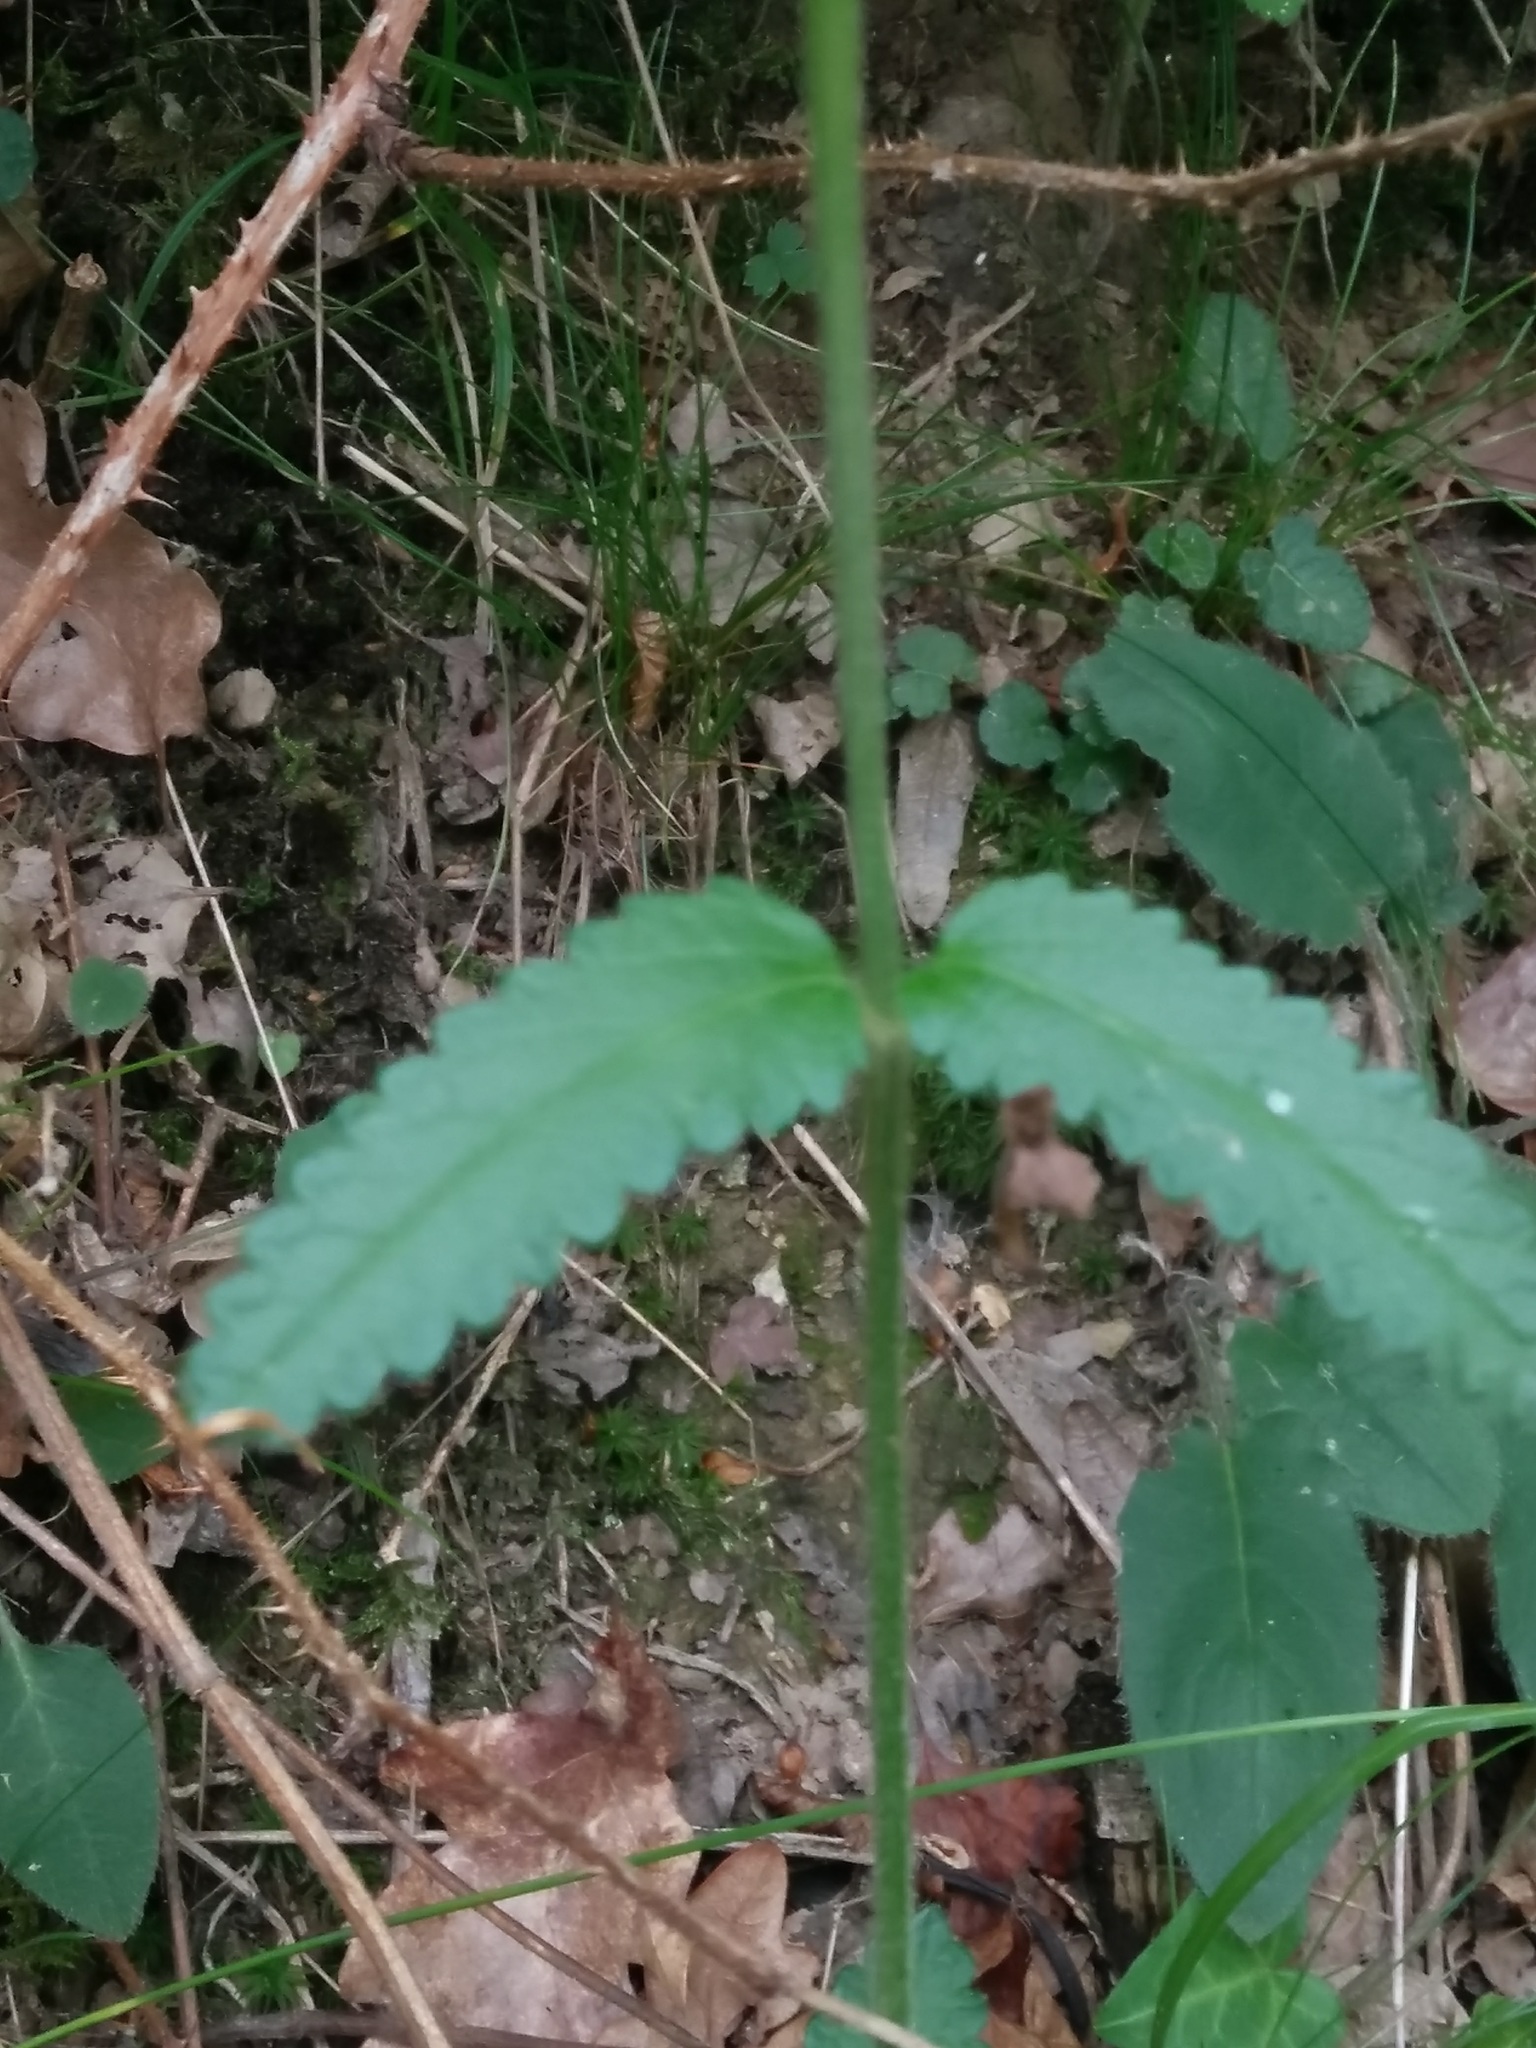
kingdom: Plantae
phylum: Tracheophyta
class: Magnoliopsida
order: Lamiales
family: Lamiaceae
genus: Betonica
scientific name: Betonica officinalis
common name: Bishop's-wort
